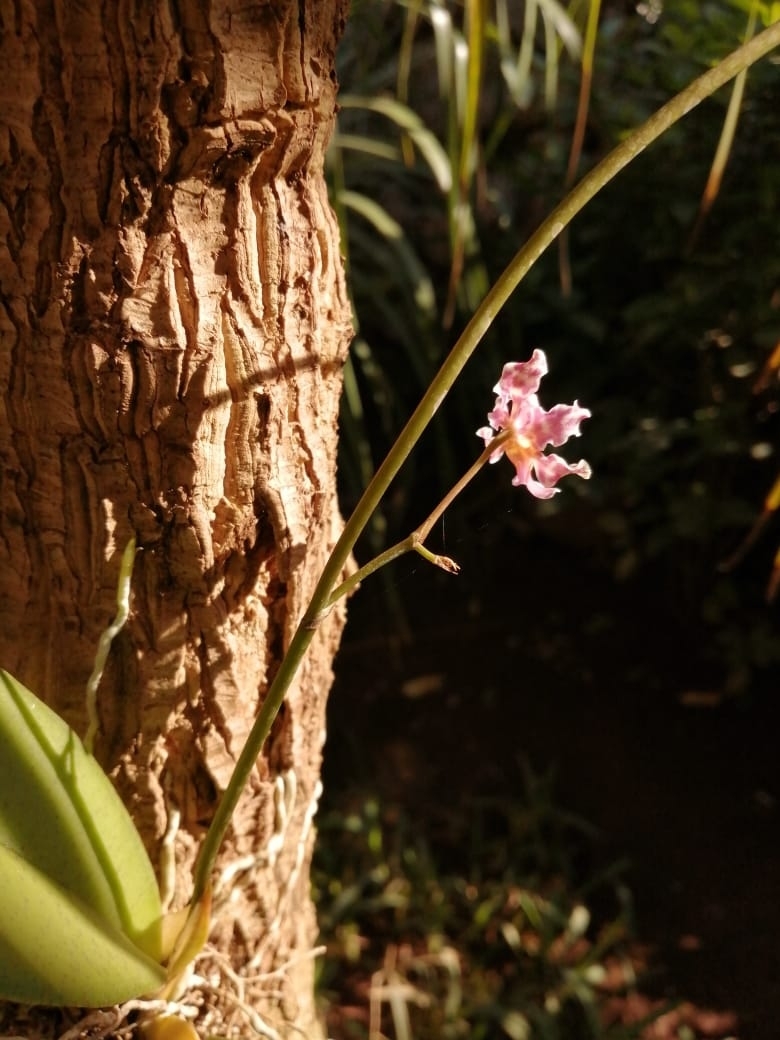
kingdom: Plantae
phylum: Tracheophyta
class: Liliopsida
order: Asparagales
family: Orchidaceae
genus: Trichocentrum
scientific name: Trichocentrum oerstedii
